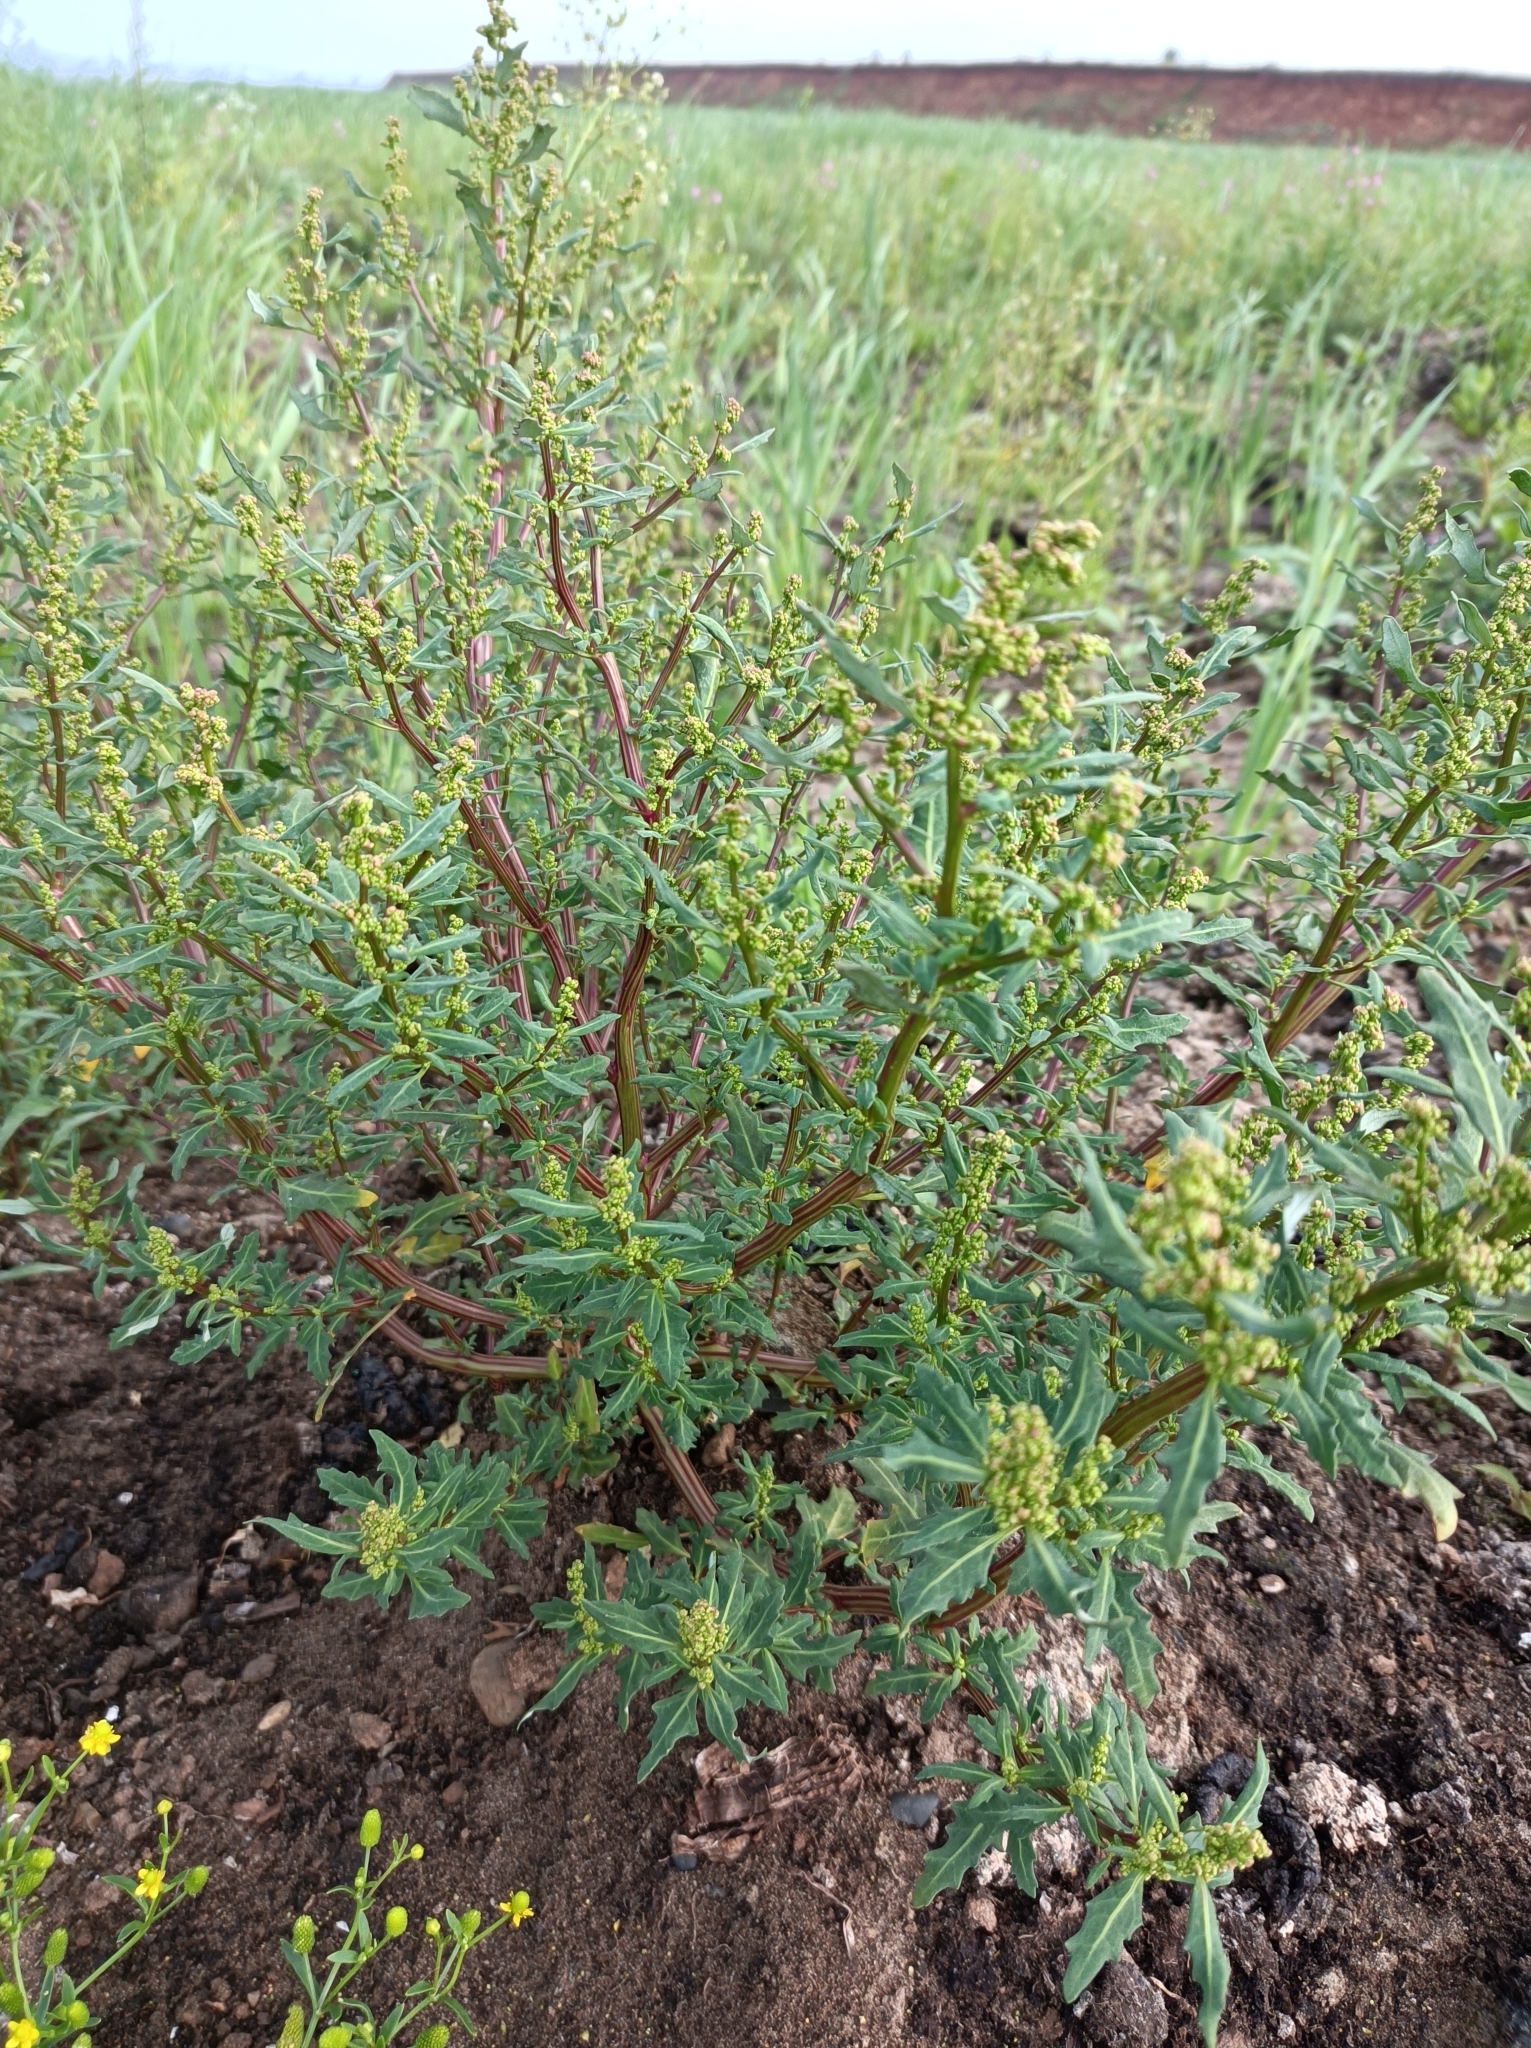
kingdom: Plantae
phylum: Tracheophyta
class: Magnoliopsida
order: Caryophyllales
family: Amaranthaceae
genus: Oxybasis
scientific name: Oxybasis glauca
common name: Glaucous goosefoot
